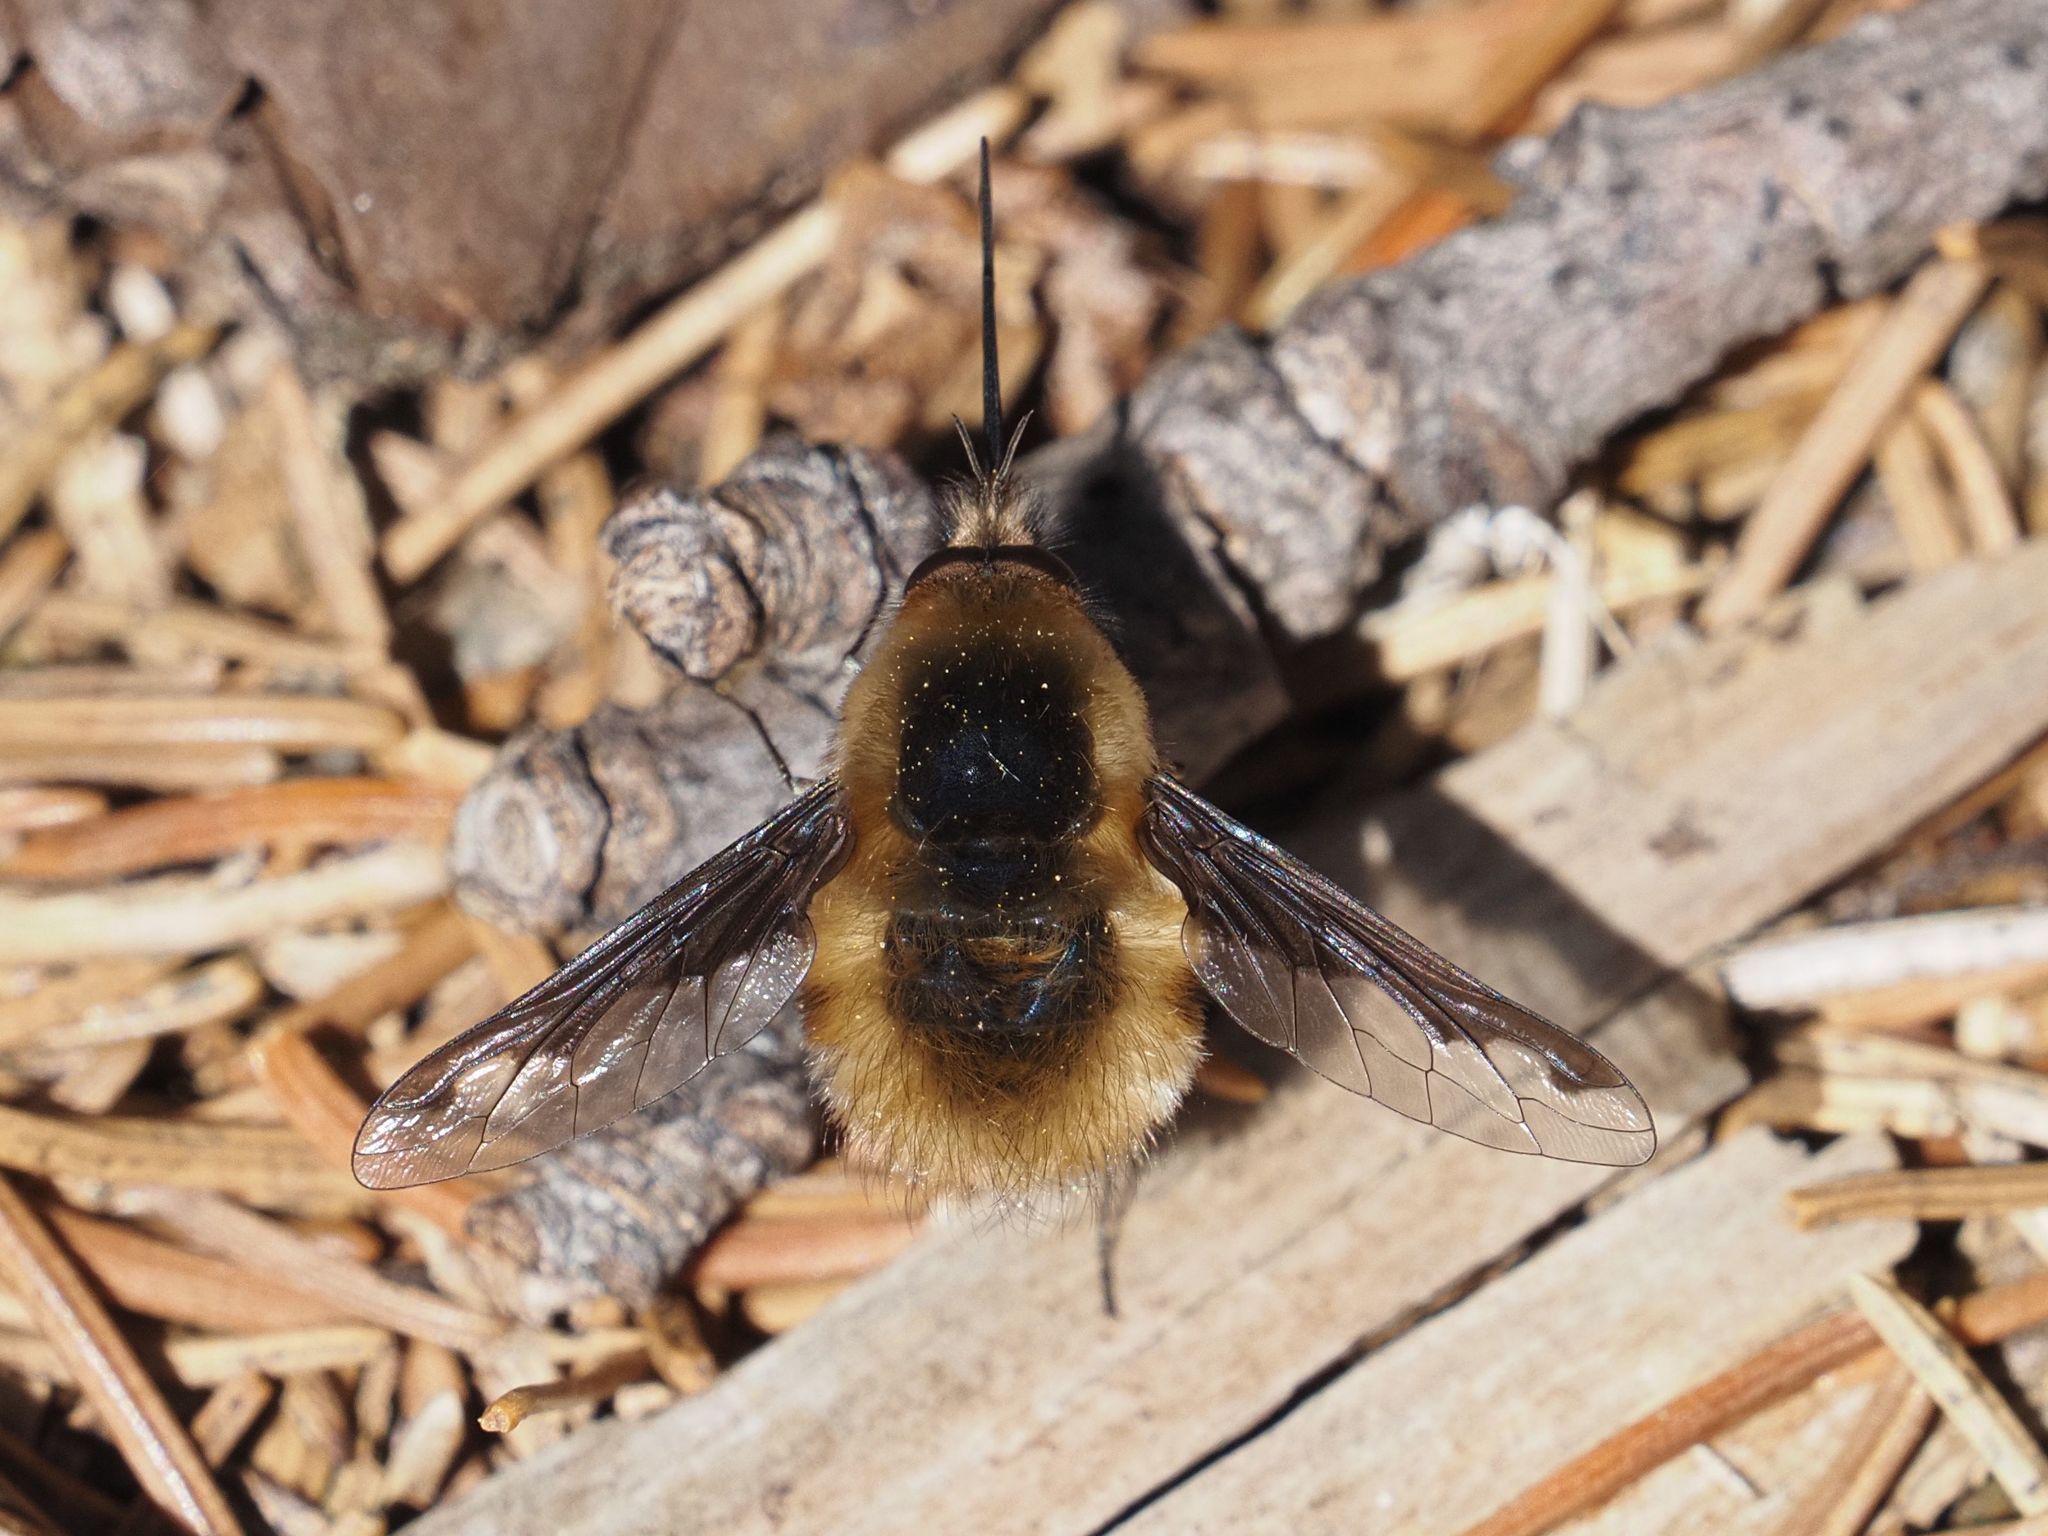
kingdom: Animalia
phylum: Arthropoda
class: Insecta
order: Diptera
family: Bombyliidae
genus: Bombylius
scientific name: Bombylius major
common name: Bee fly
